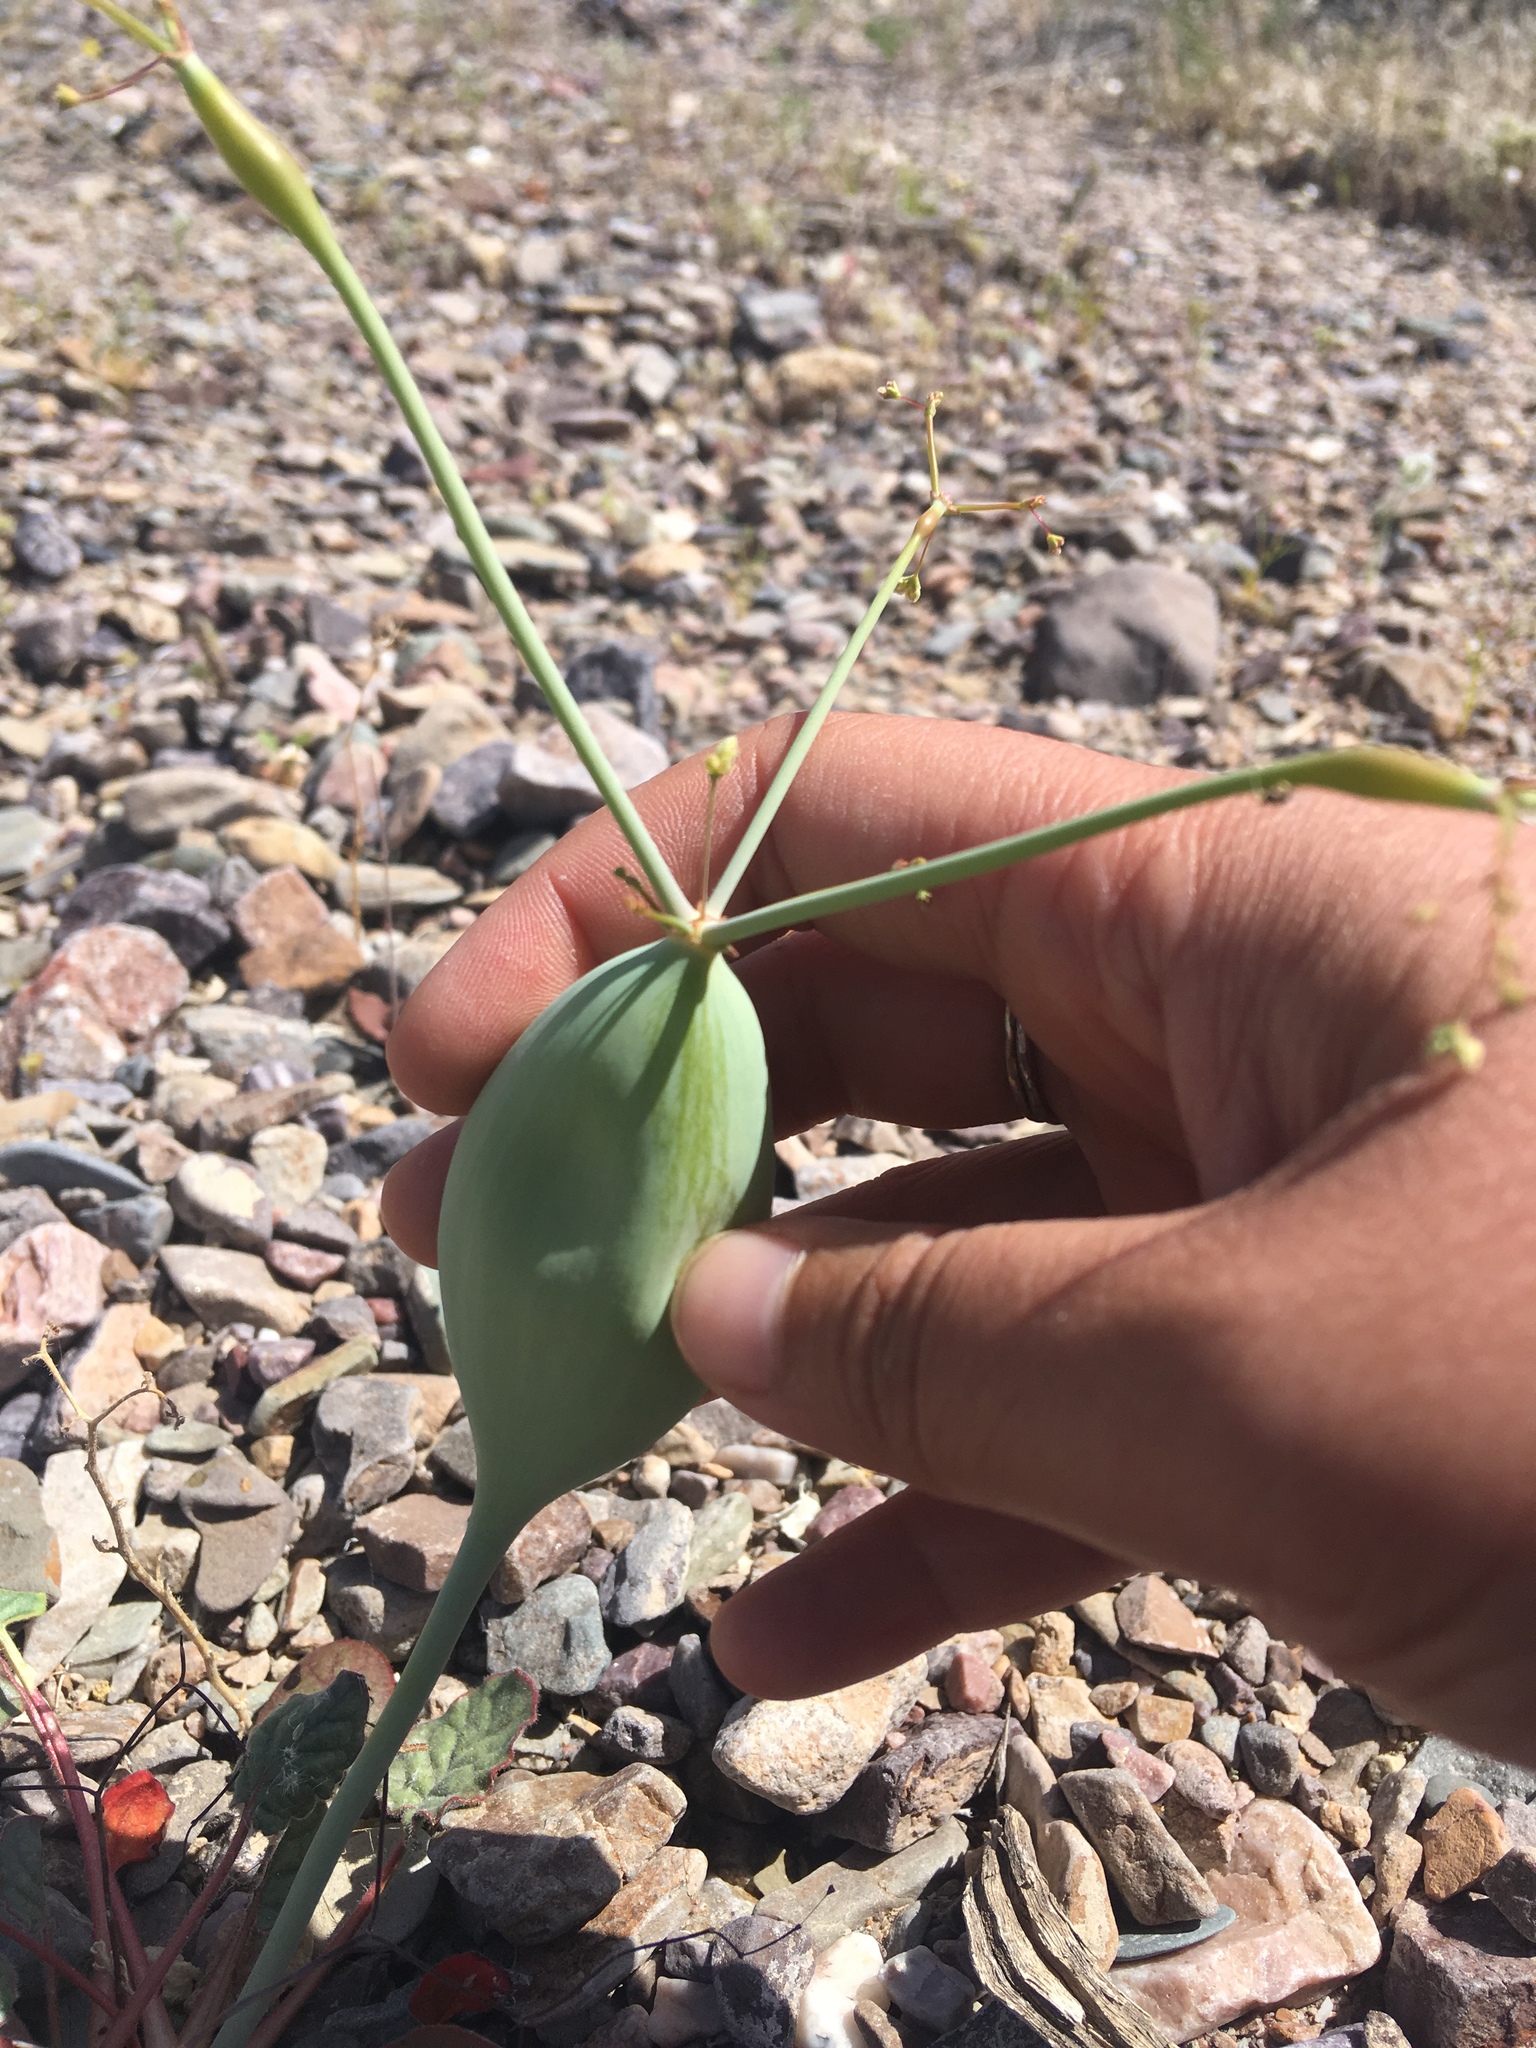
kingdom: Plantae
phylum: Tracheophyta
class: Magnoliopsida
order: Caryophyllales
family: Polygonaceae
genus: Eriogonum
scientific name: Eriogonum inflatum
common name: Desert trumpet
